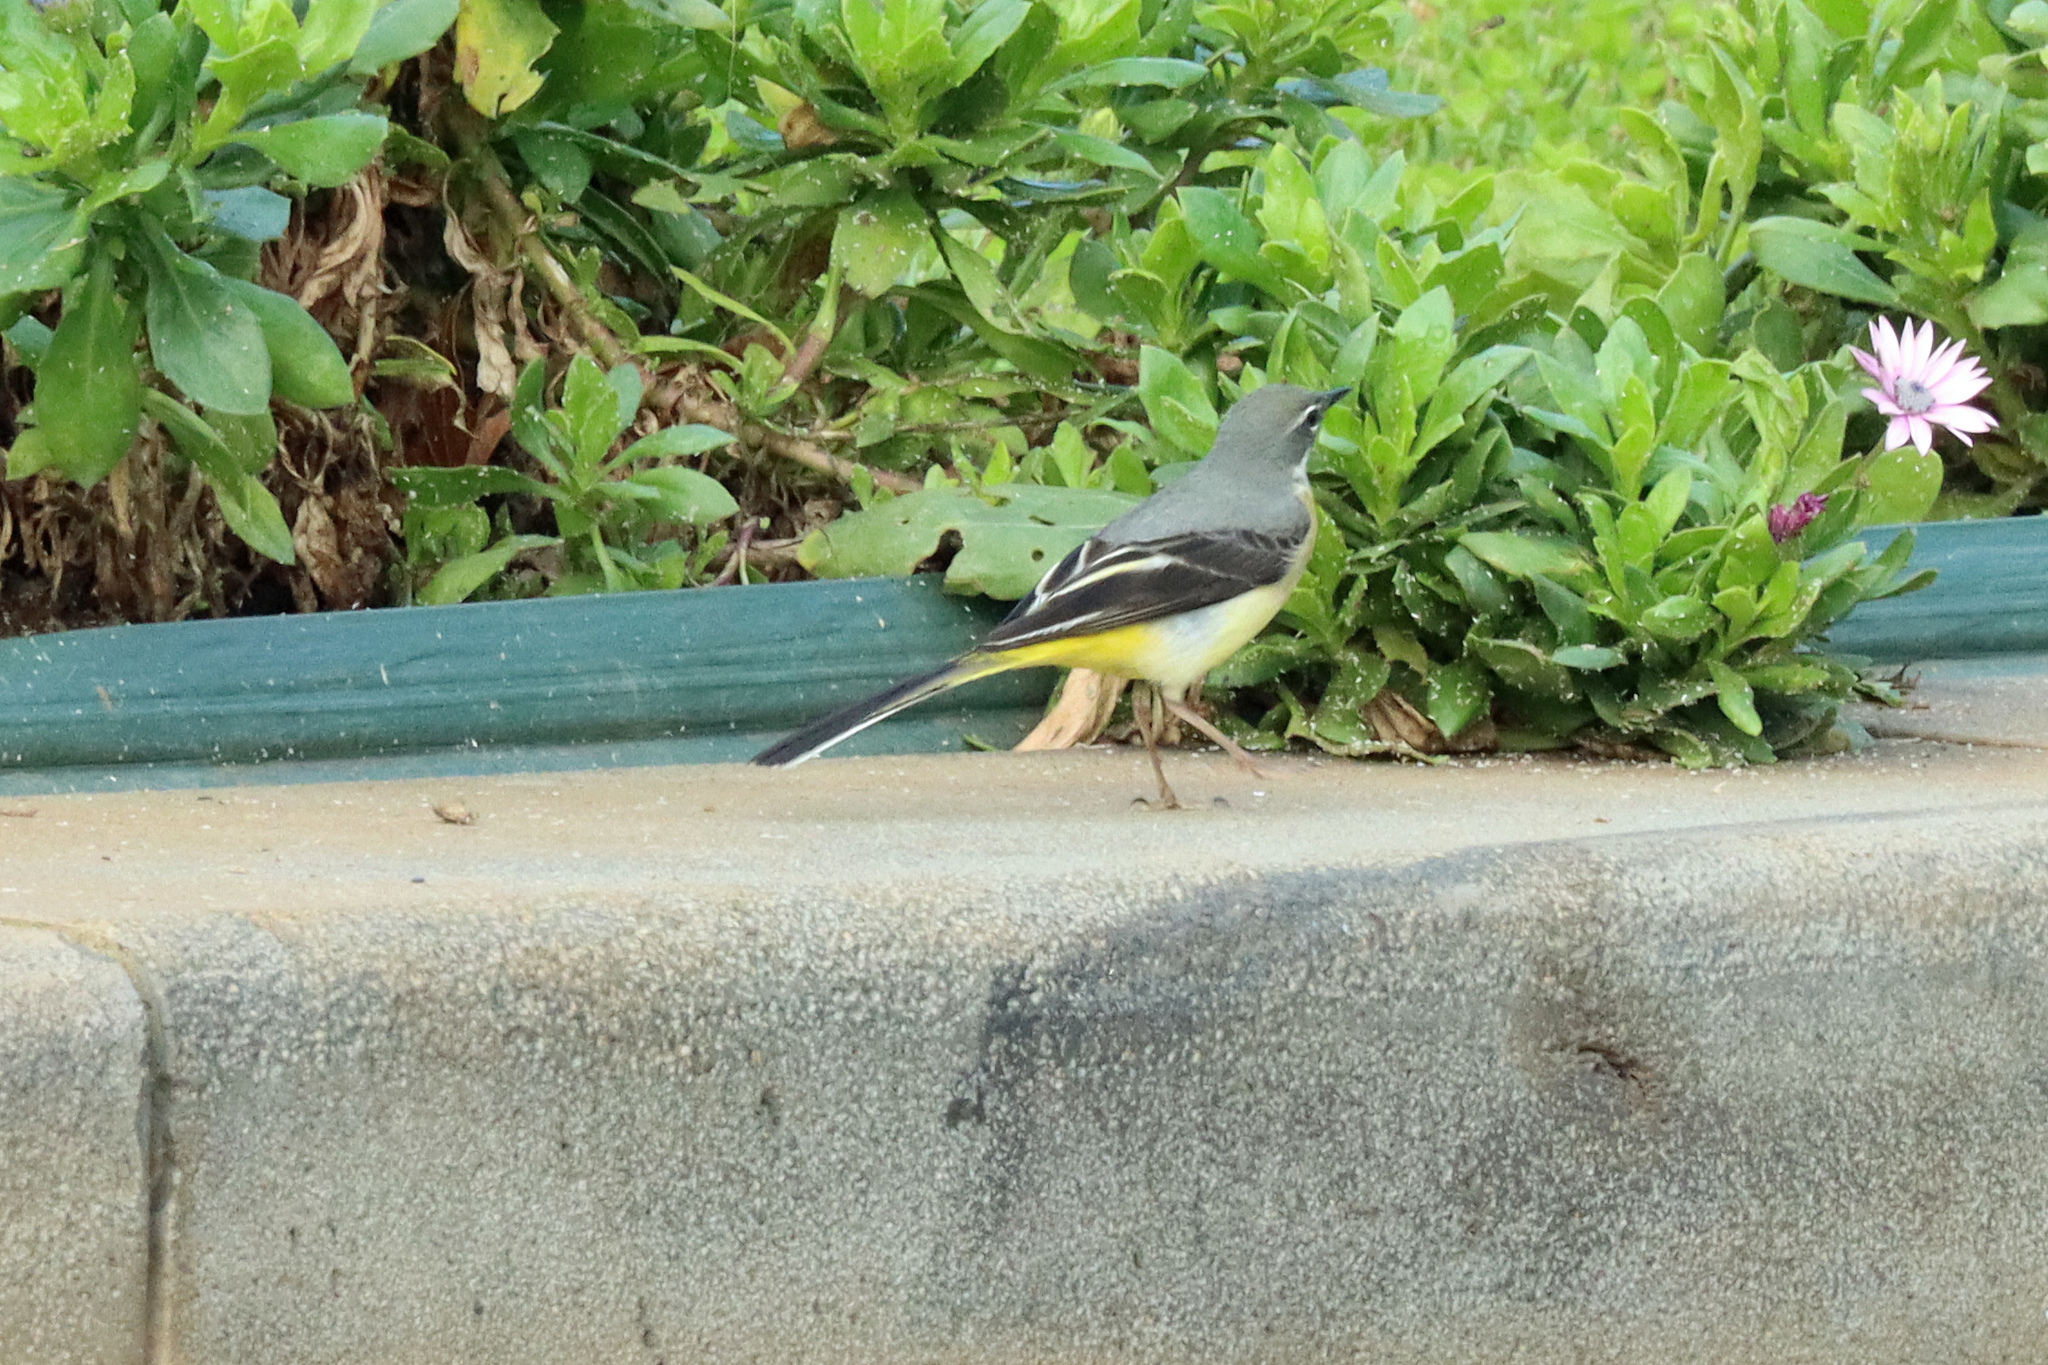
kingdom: Animalia
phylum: Chordata
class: Aves
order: Passeriformes
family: Motacillidae
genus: Motacilla
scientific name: Motacilla cinerea
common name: Grey wagtail
